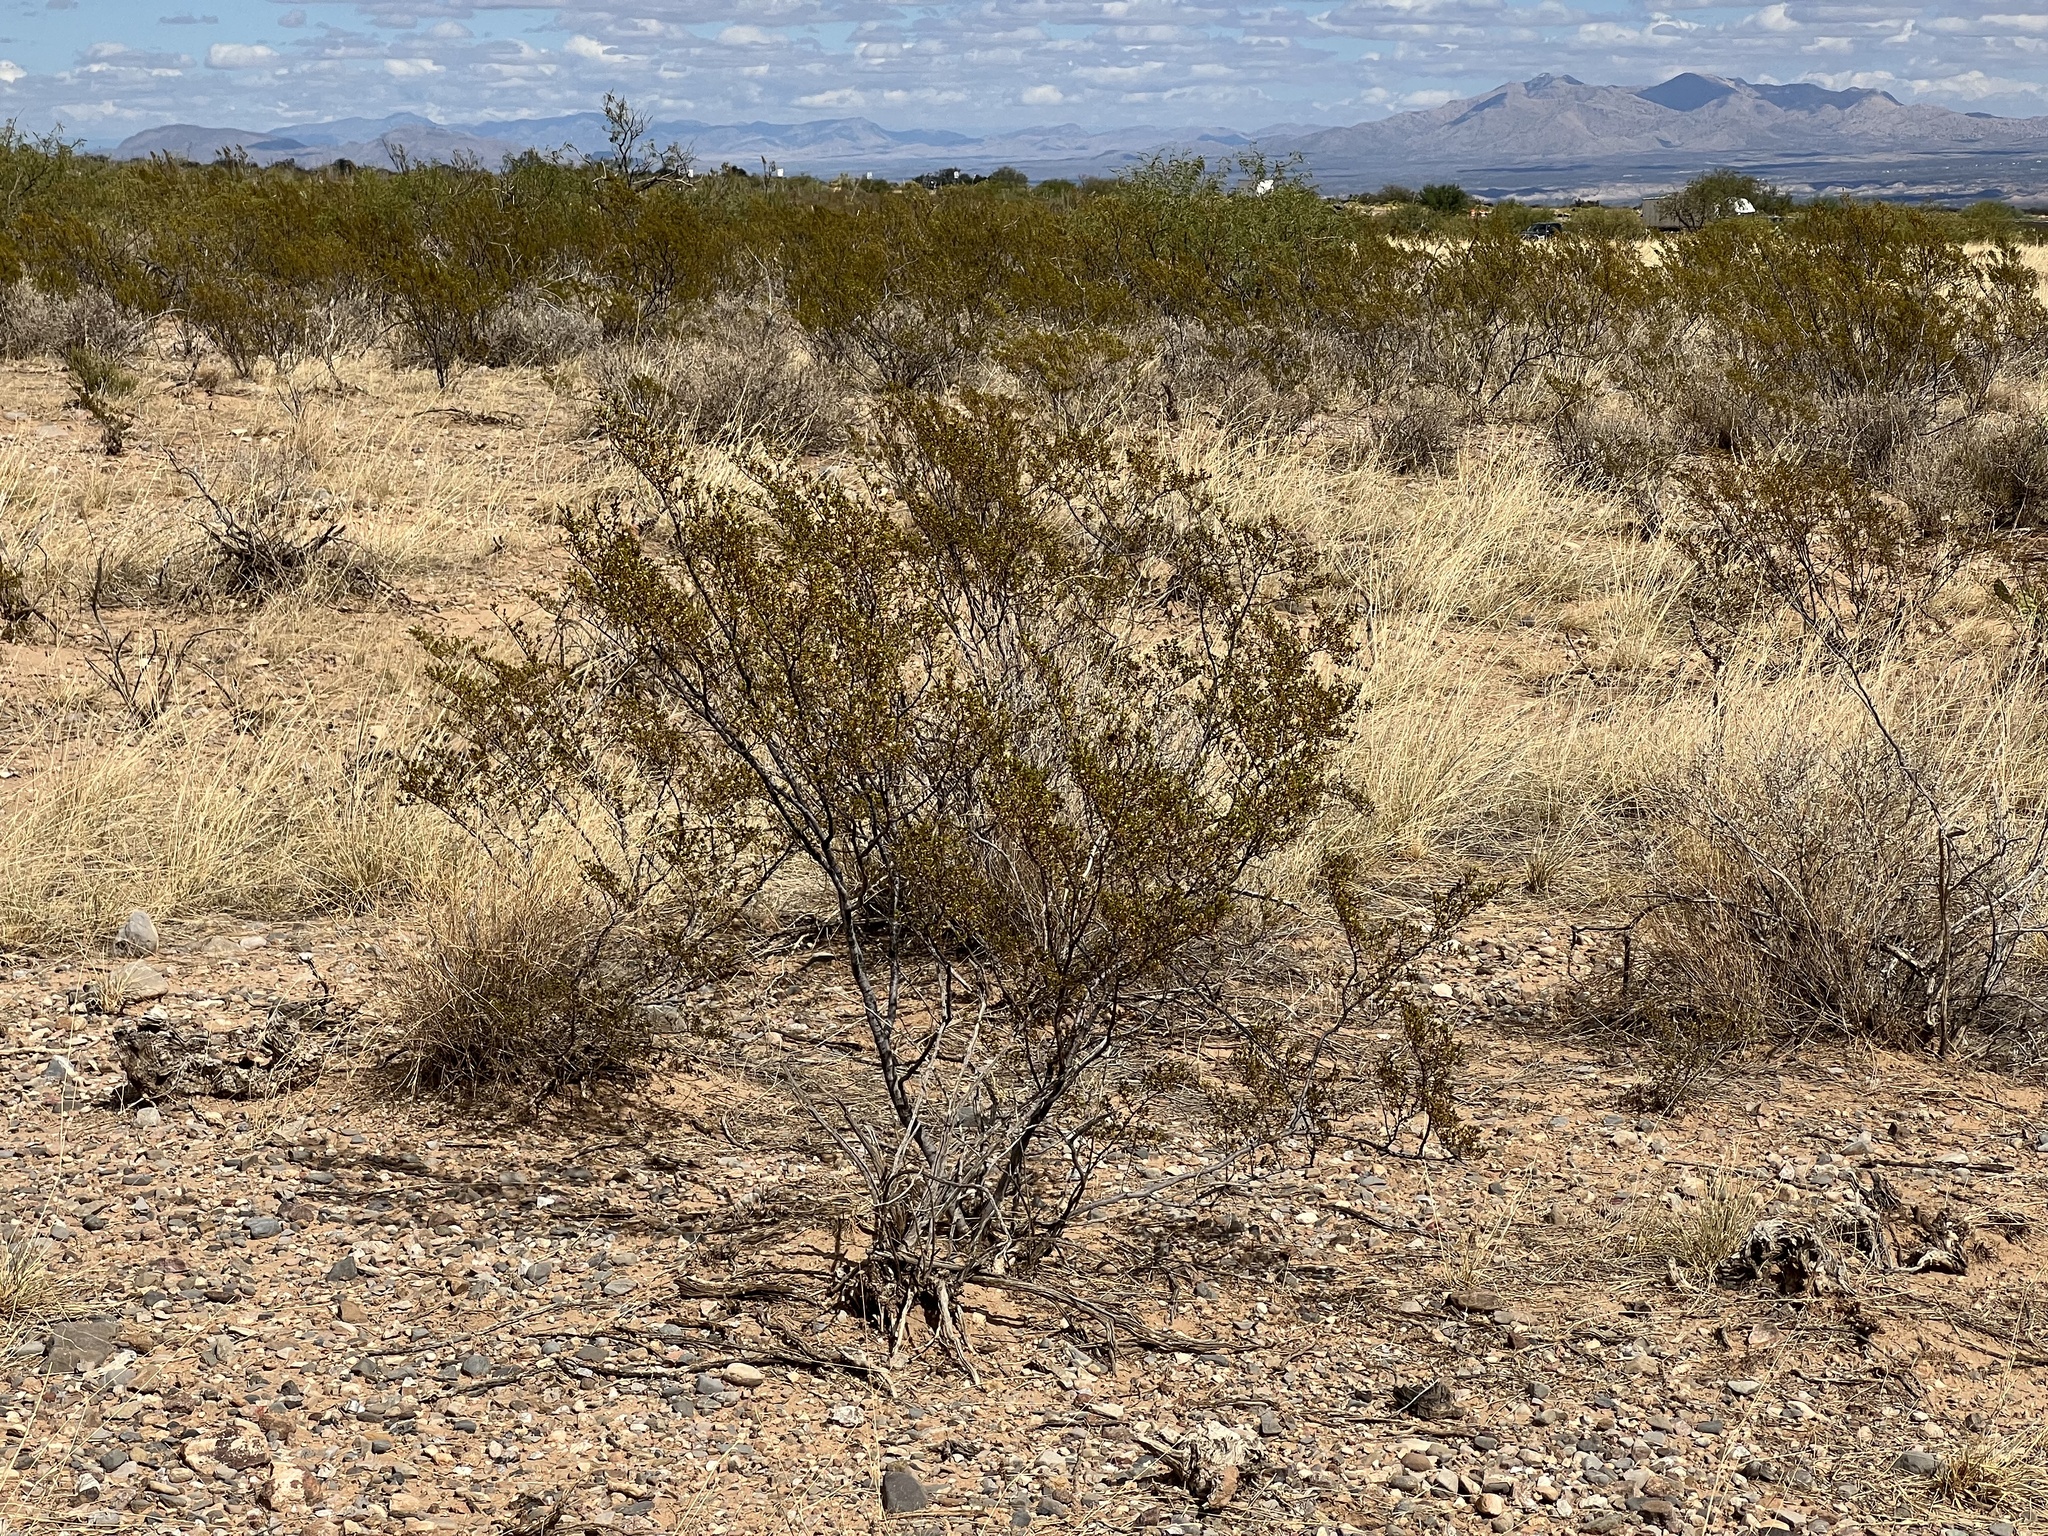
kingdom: Plantae
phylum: Tracheophyta
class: Magnoliopsida
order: Zygophyllales
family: Zygophyllaceae
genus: Larrea
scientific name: Larrea tridentata
